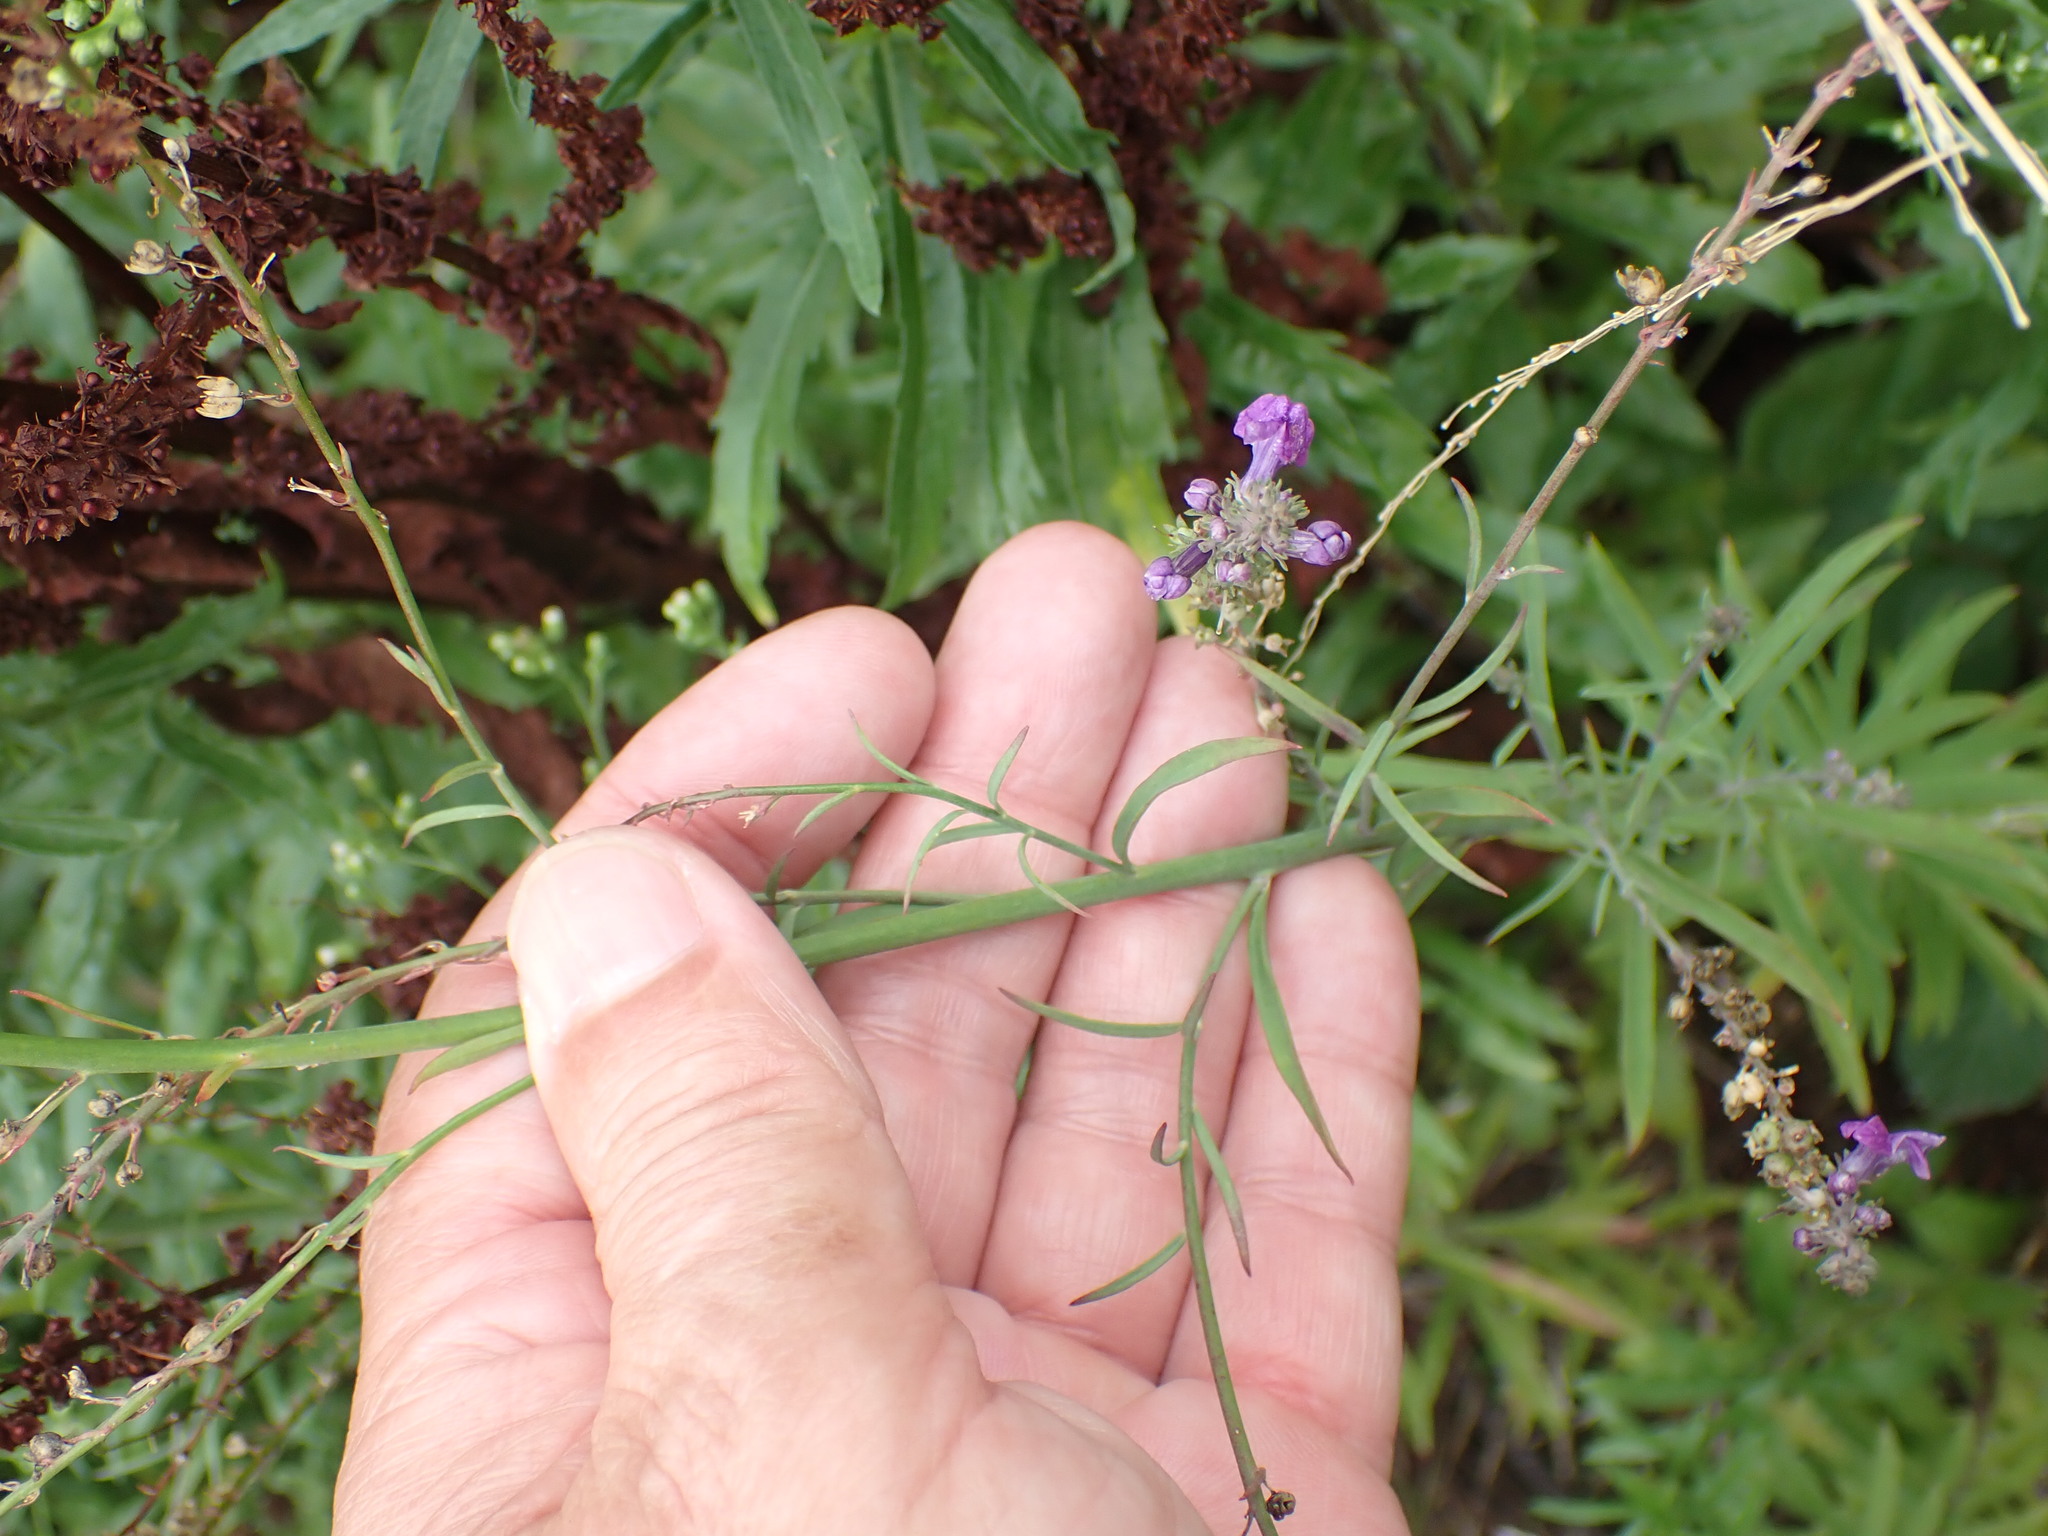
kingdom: Plantae
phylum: Tracheophyta
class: Magnoliopsida
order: Lamiales
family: Plantaginaceae
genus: Linaria
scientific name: Linaria purpurea
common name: Purple toadflax
